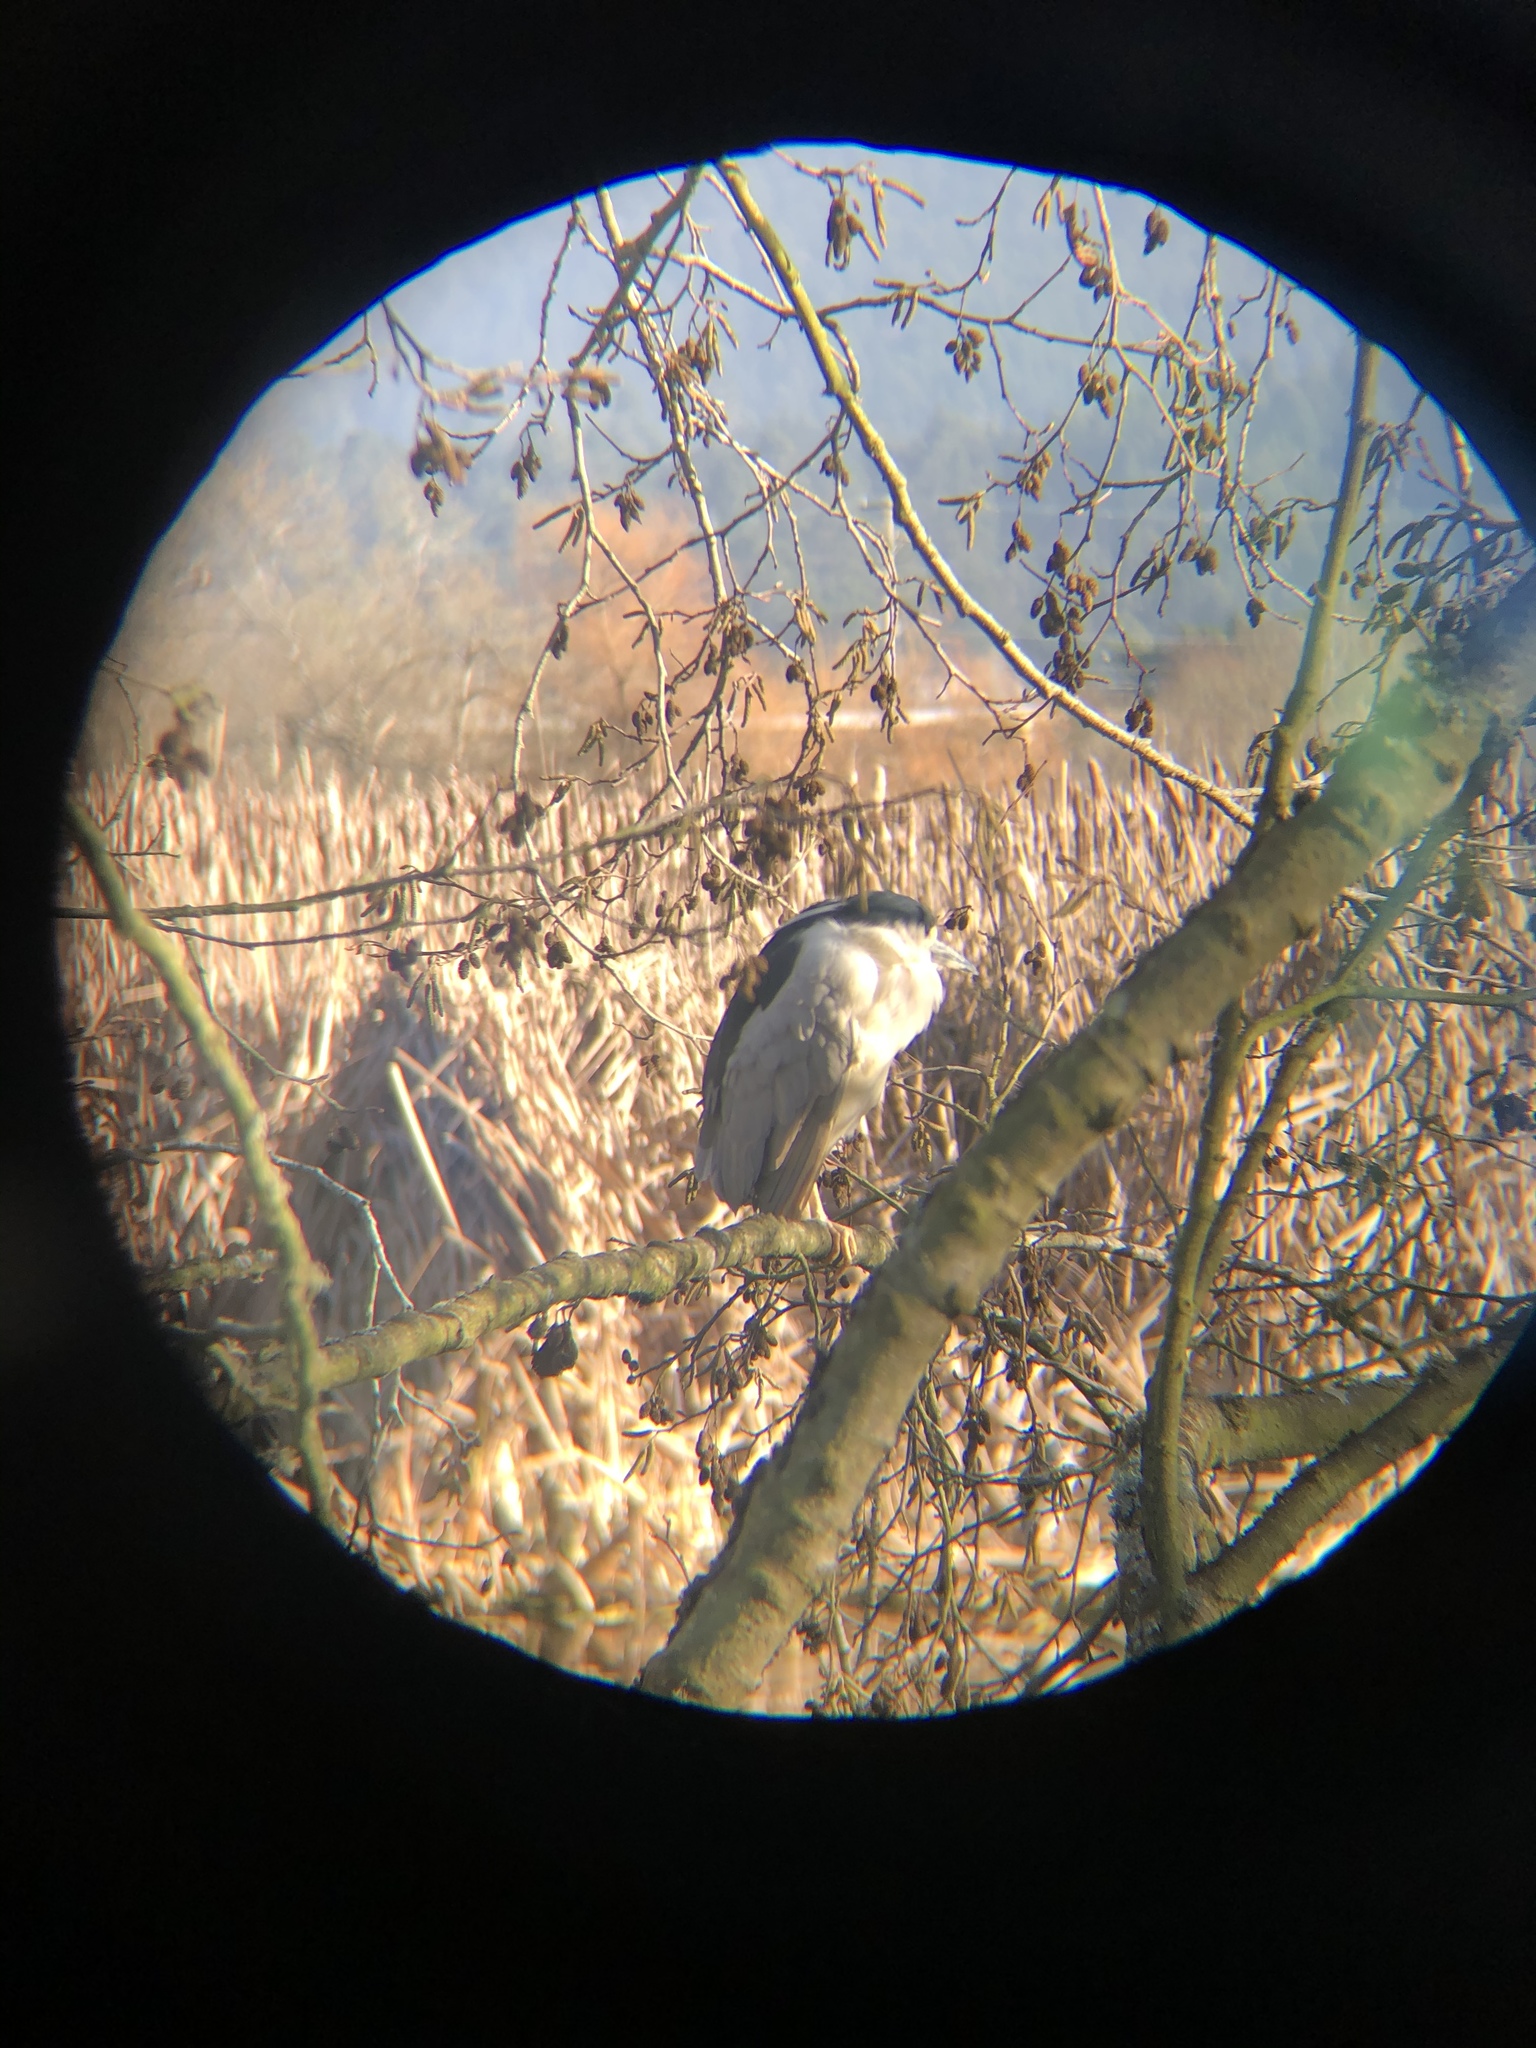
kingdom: Animalia
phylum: Chordata
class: Aves
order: Pelecaniformes
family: Ardeidae
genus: Nycticorax
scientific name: Nycticorax nycticorax
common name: Black-crowned night heron
